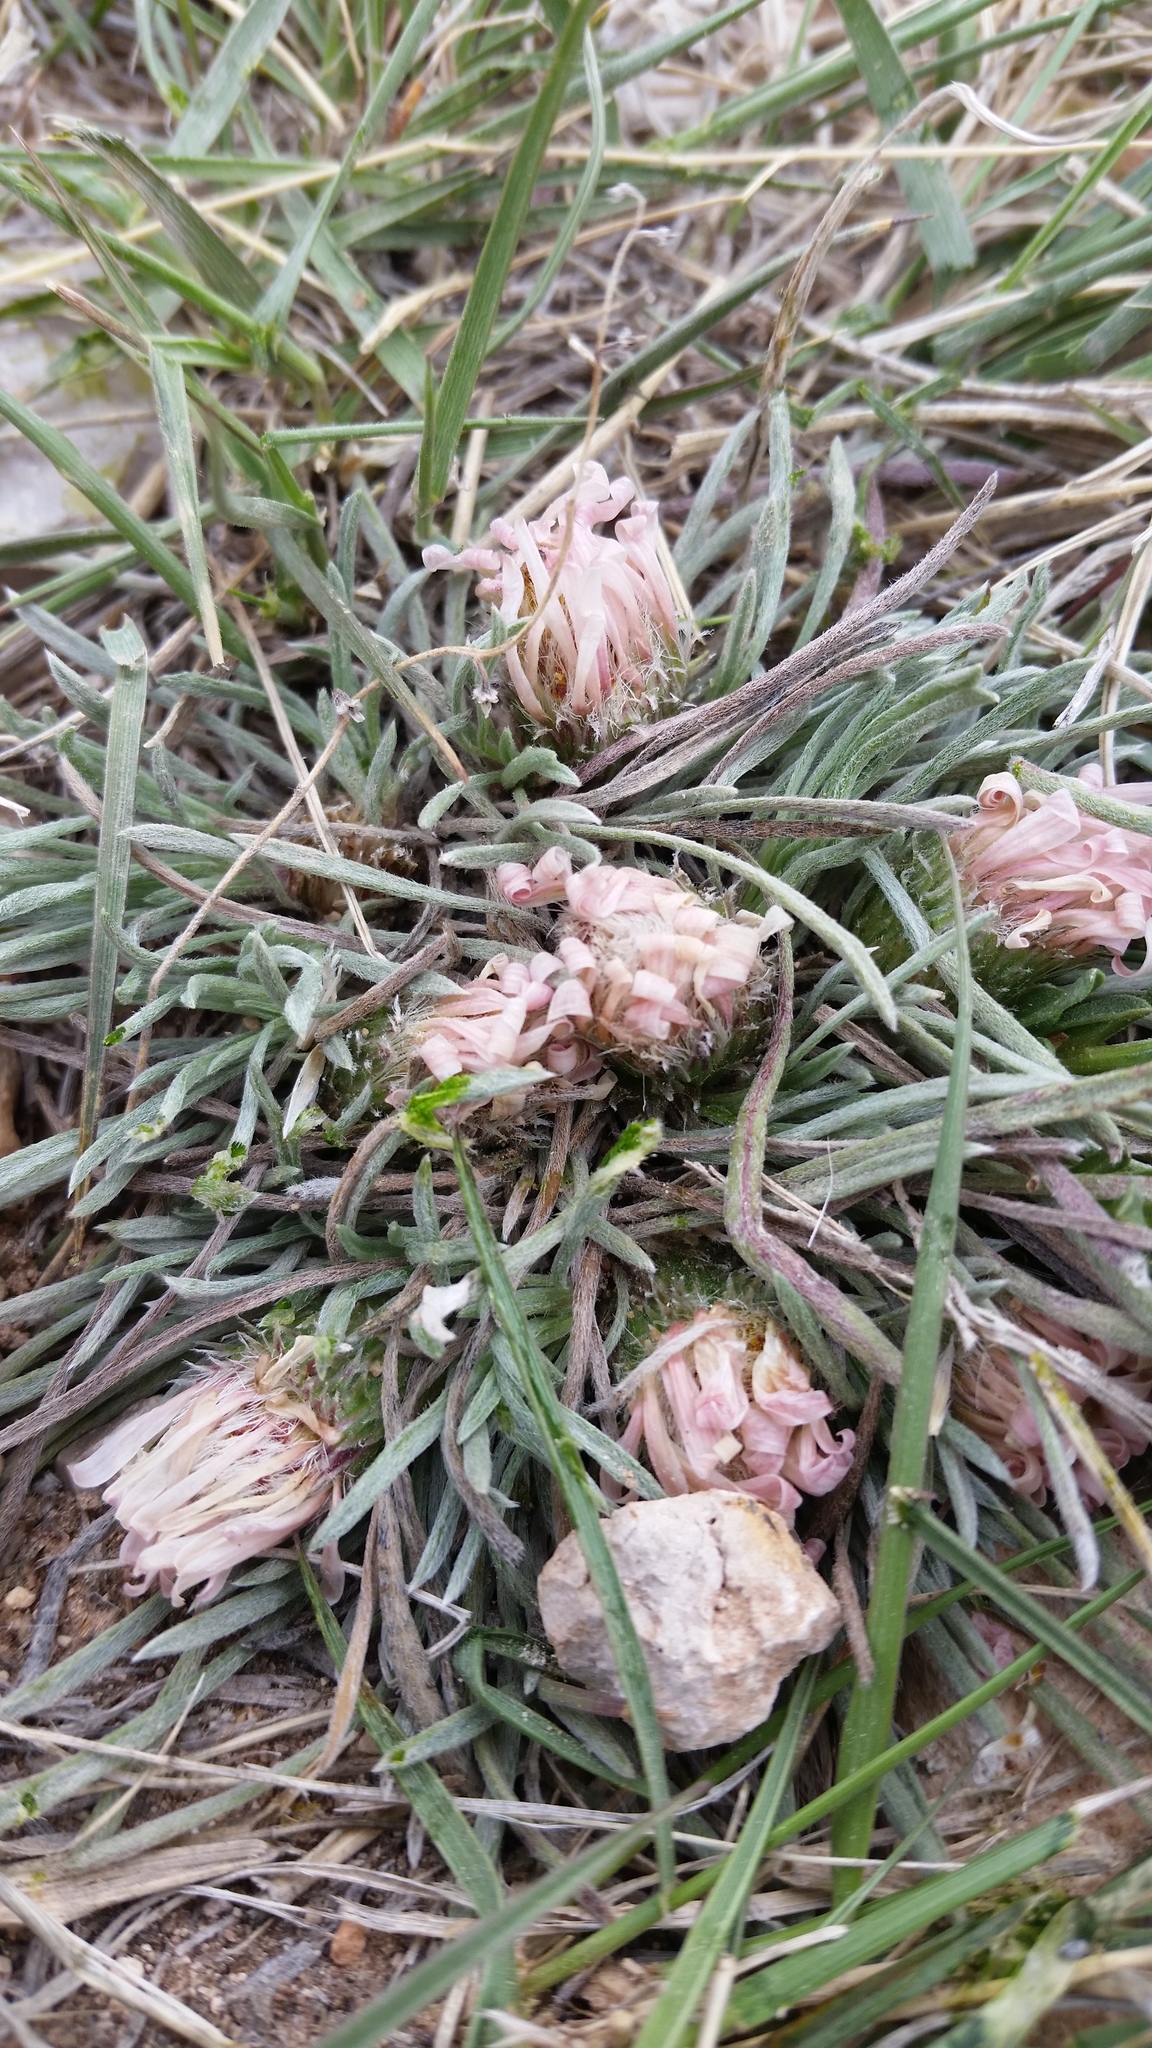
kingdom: Plantae
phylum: Tracheophyta
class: Magnoliopsida
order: Asterales
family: Asteraceae
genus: Townsendia
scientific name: Townsendia hookeri
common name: Hooker's townsend daisy
